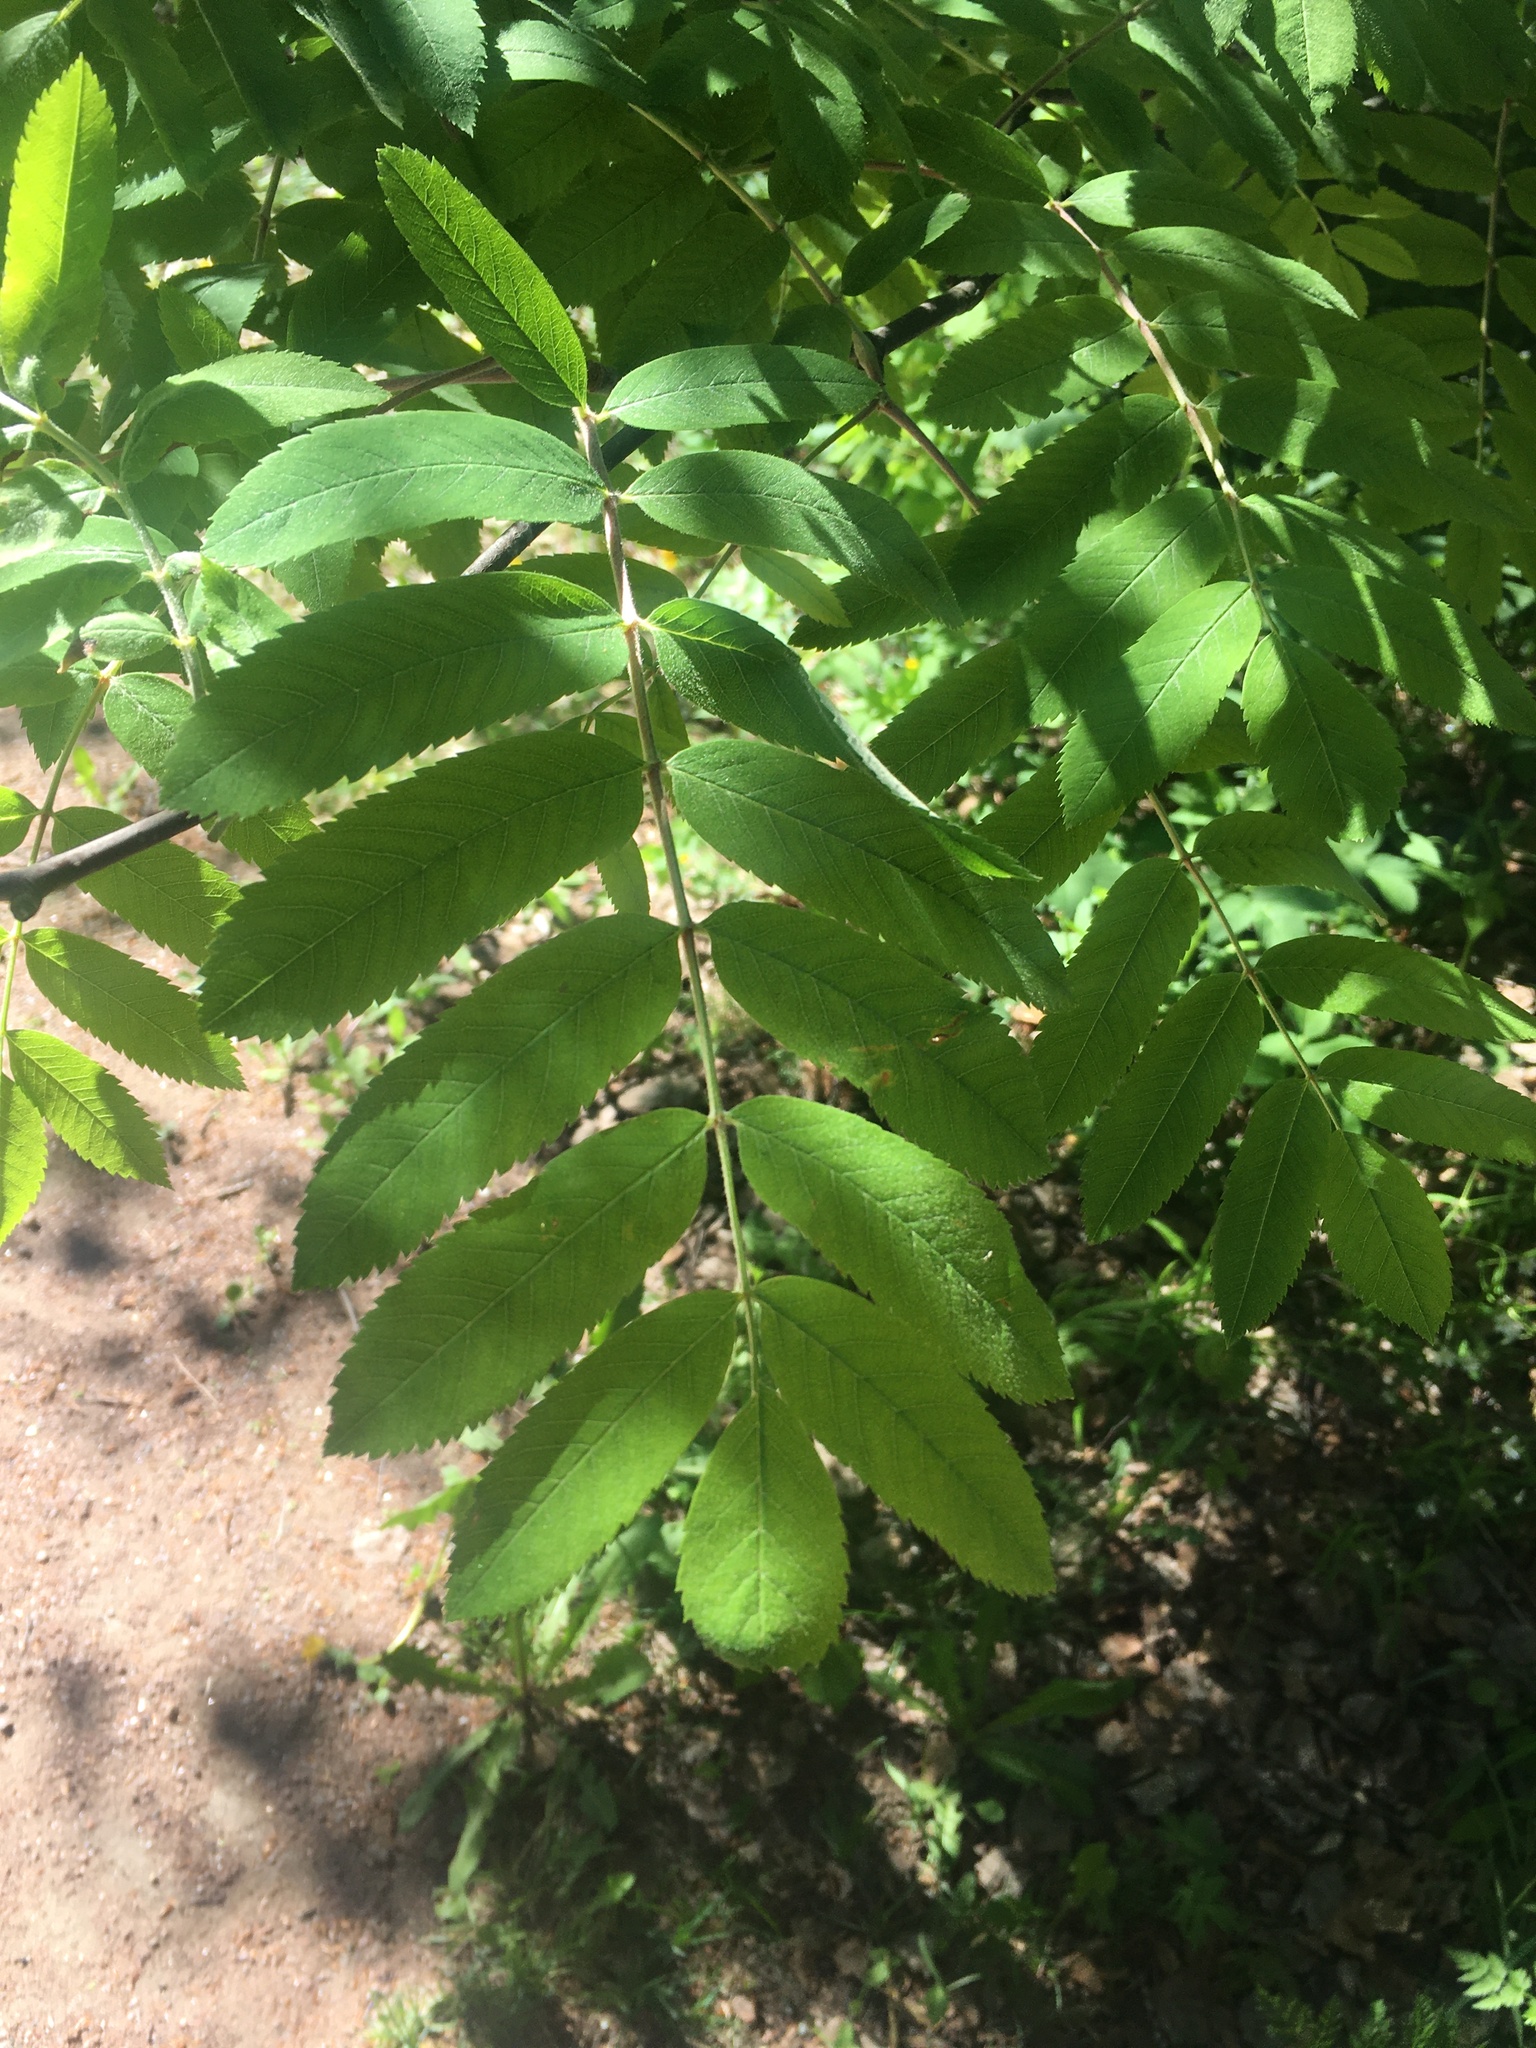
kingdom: Plantae
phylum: Tracheophyta
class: Magnoliopsida
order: Rosales
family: Rosaceae
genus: Sorbus
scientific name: Sorbus aucuparia
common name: Rowan
